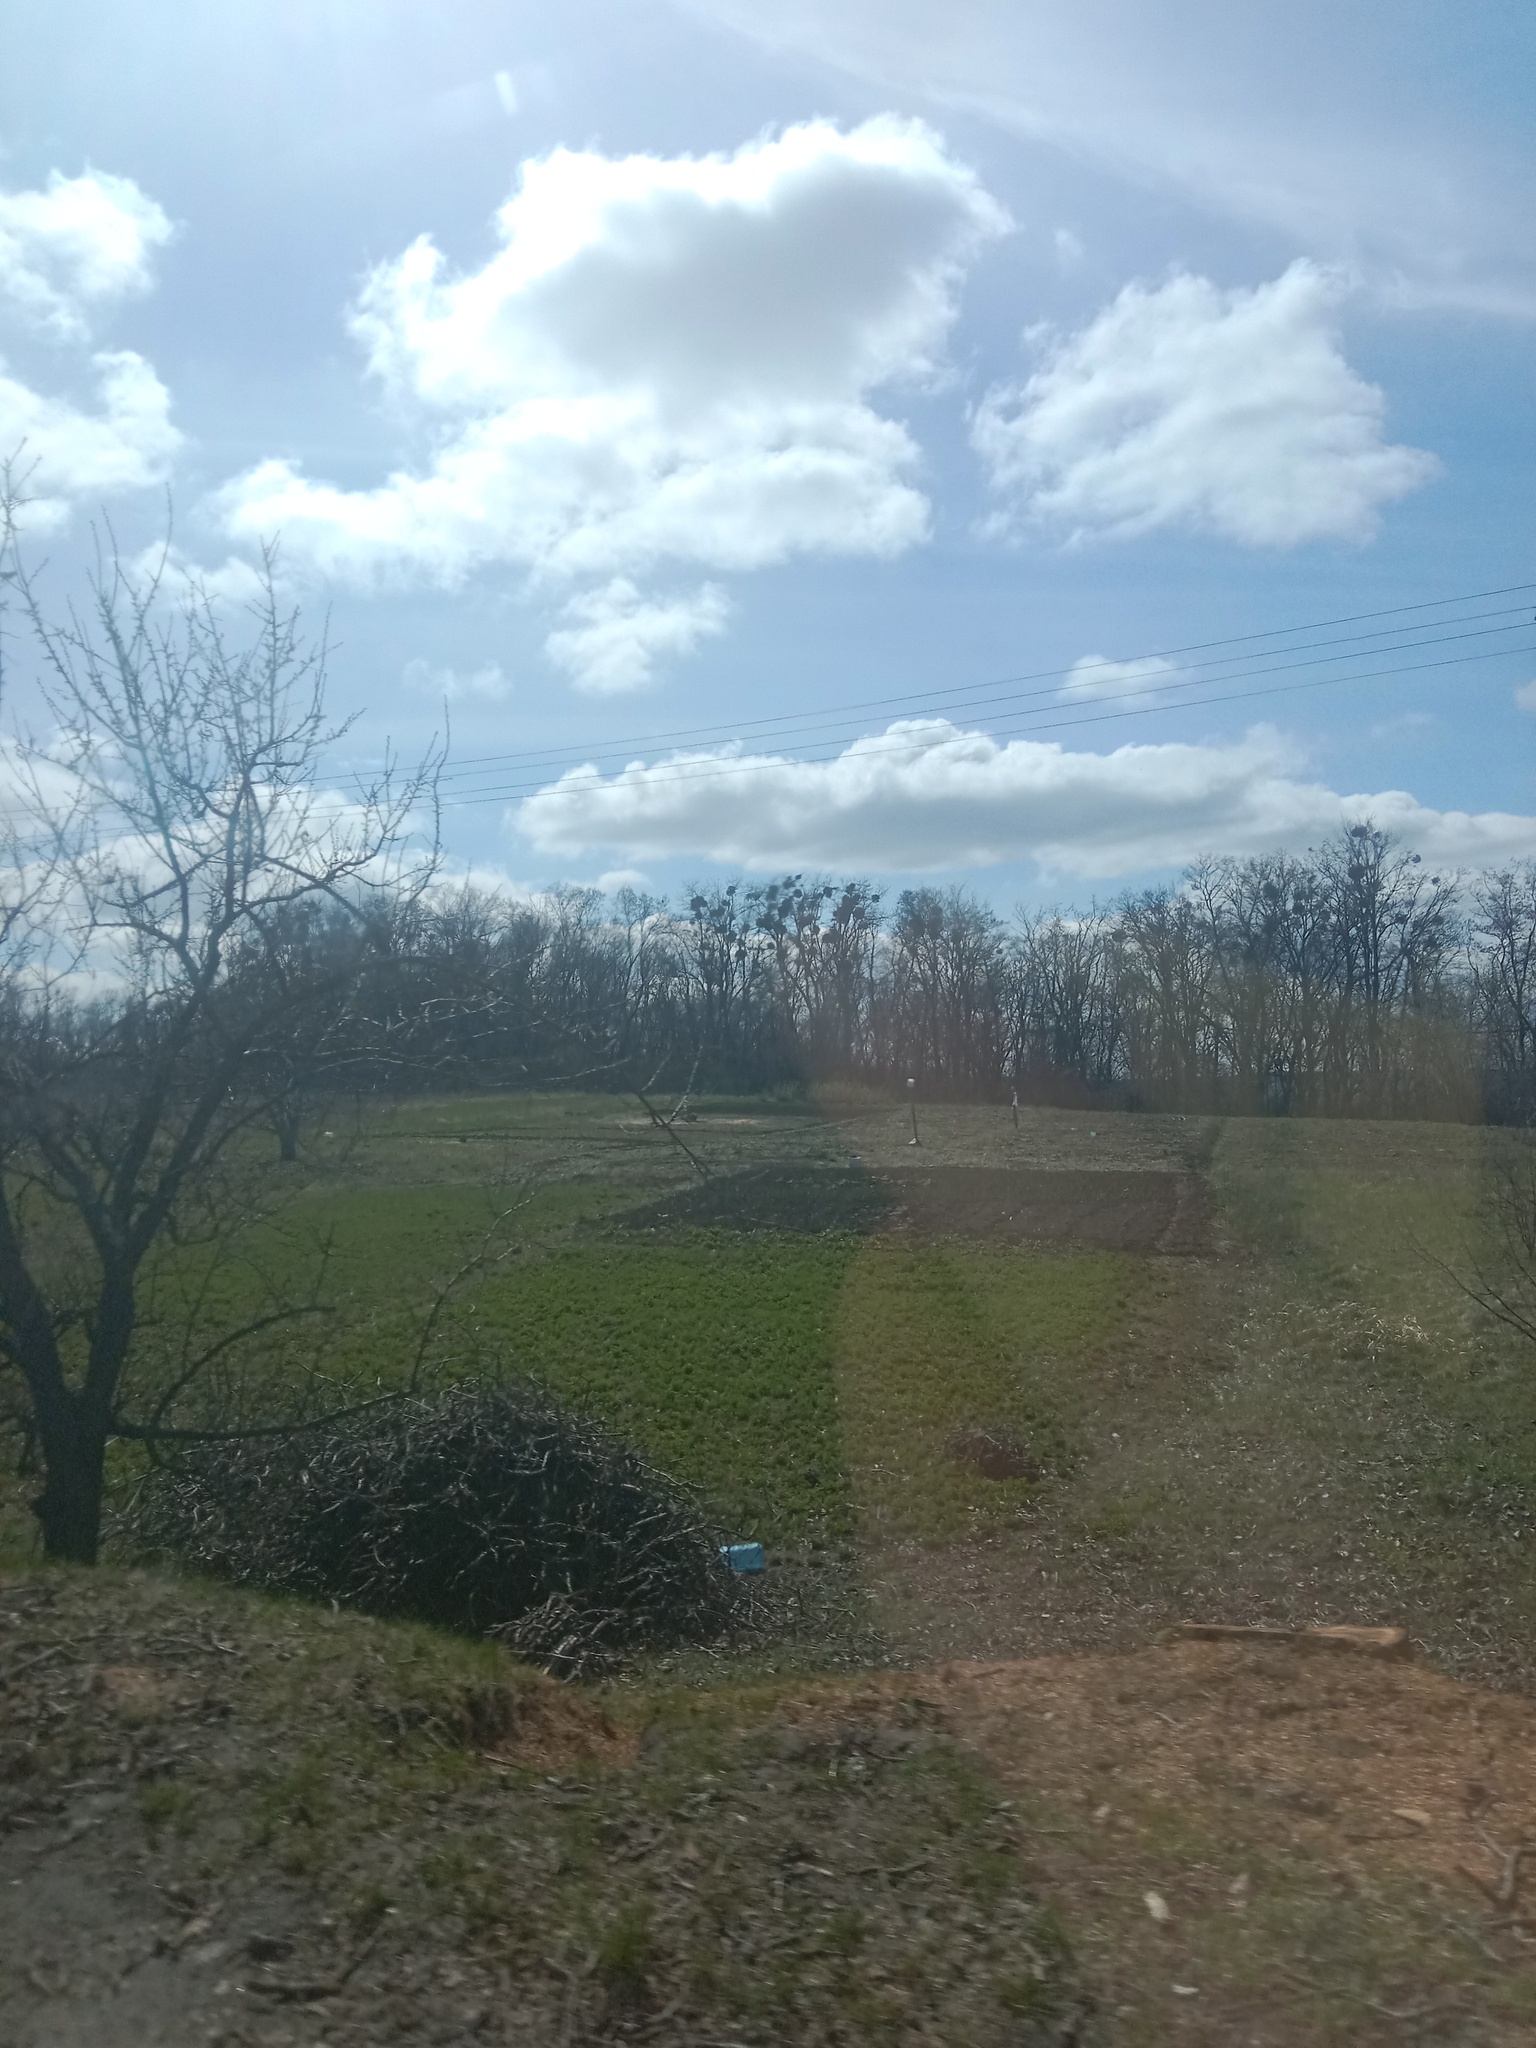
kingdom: Plantae
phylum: Tracheophyta
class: Magnoliopsida
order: Santalales
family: Viscaceae
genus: Viscum
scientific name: Viscum album
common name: Mistletoe
